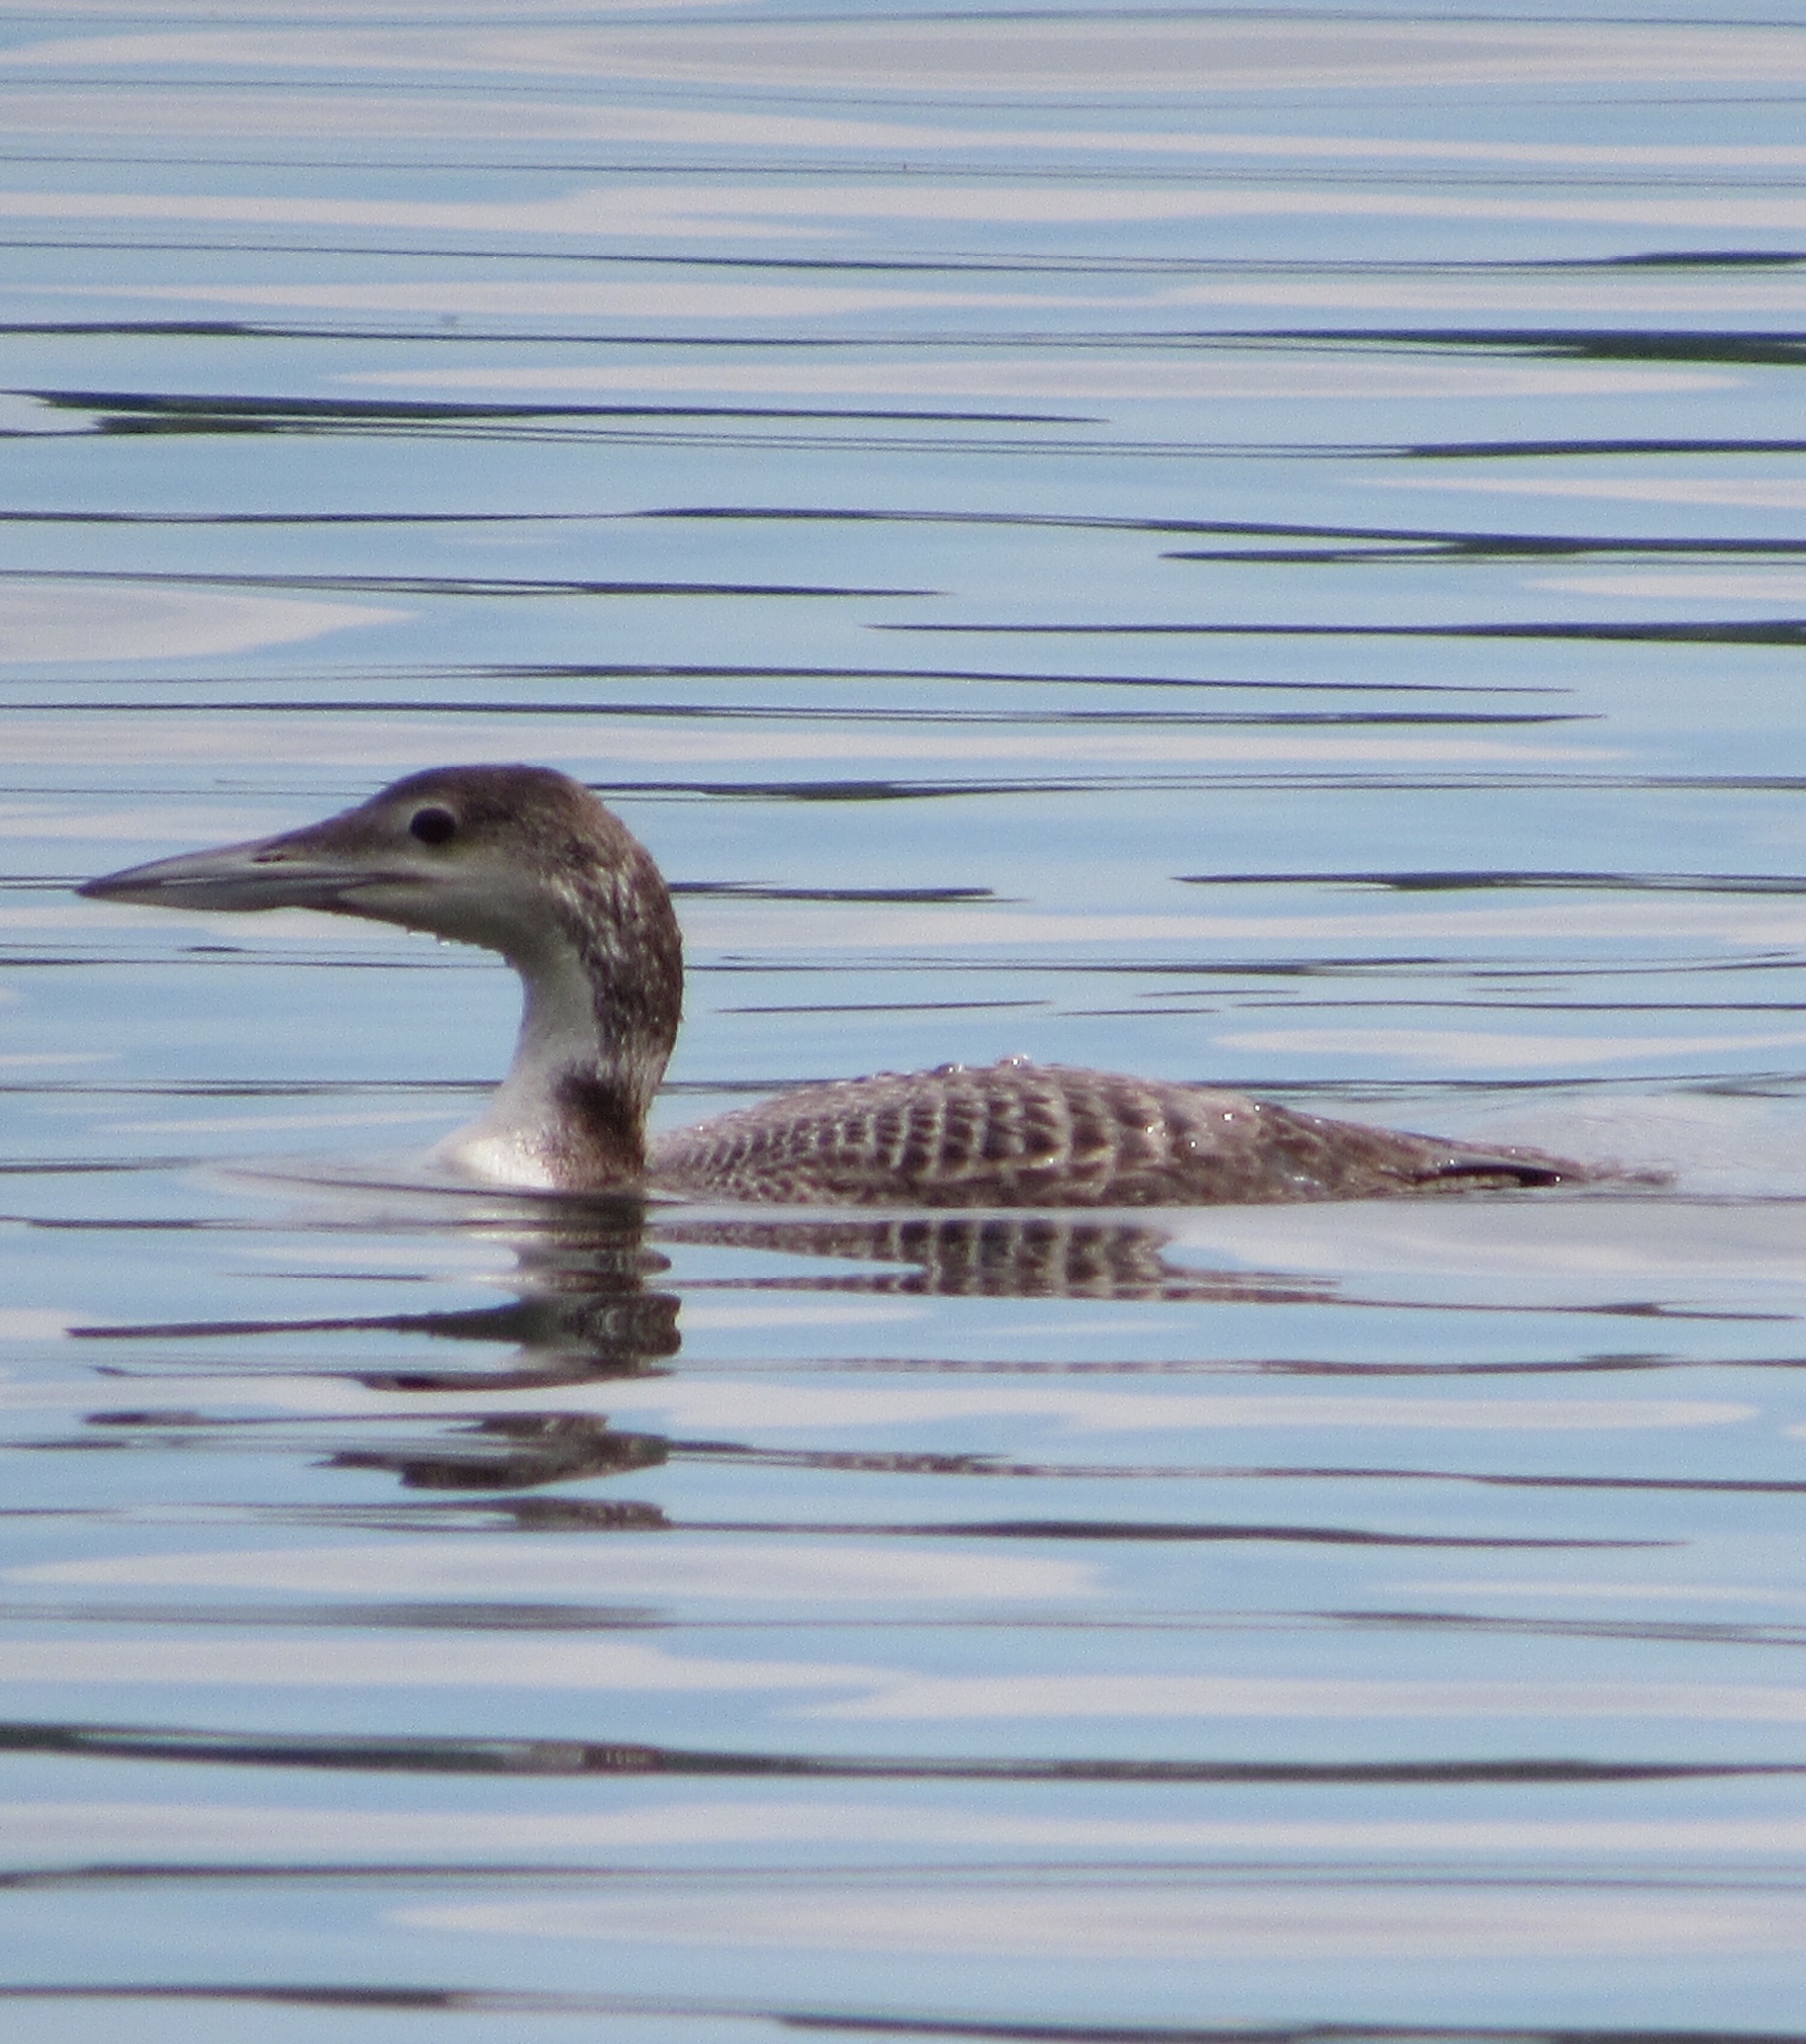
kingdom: Animalia
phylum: Chordata
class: Aves
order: Gaviiformes
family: Gaviidae
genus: Gavia
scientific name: Gavia immer
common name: Common loon
